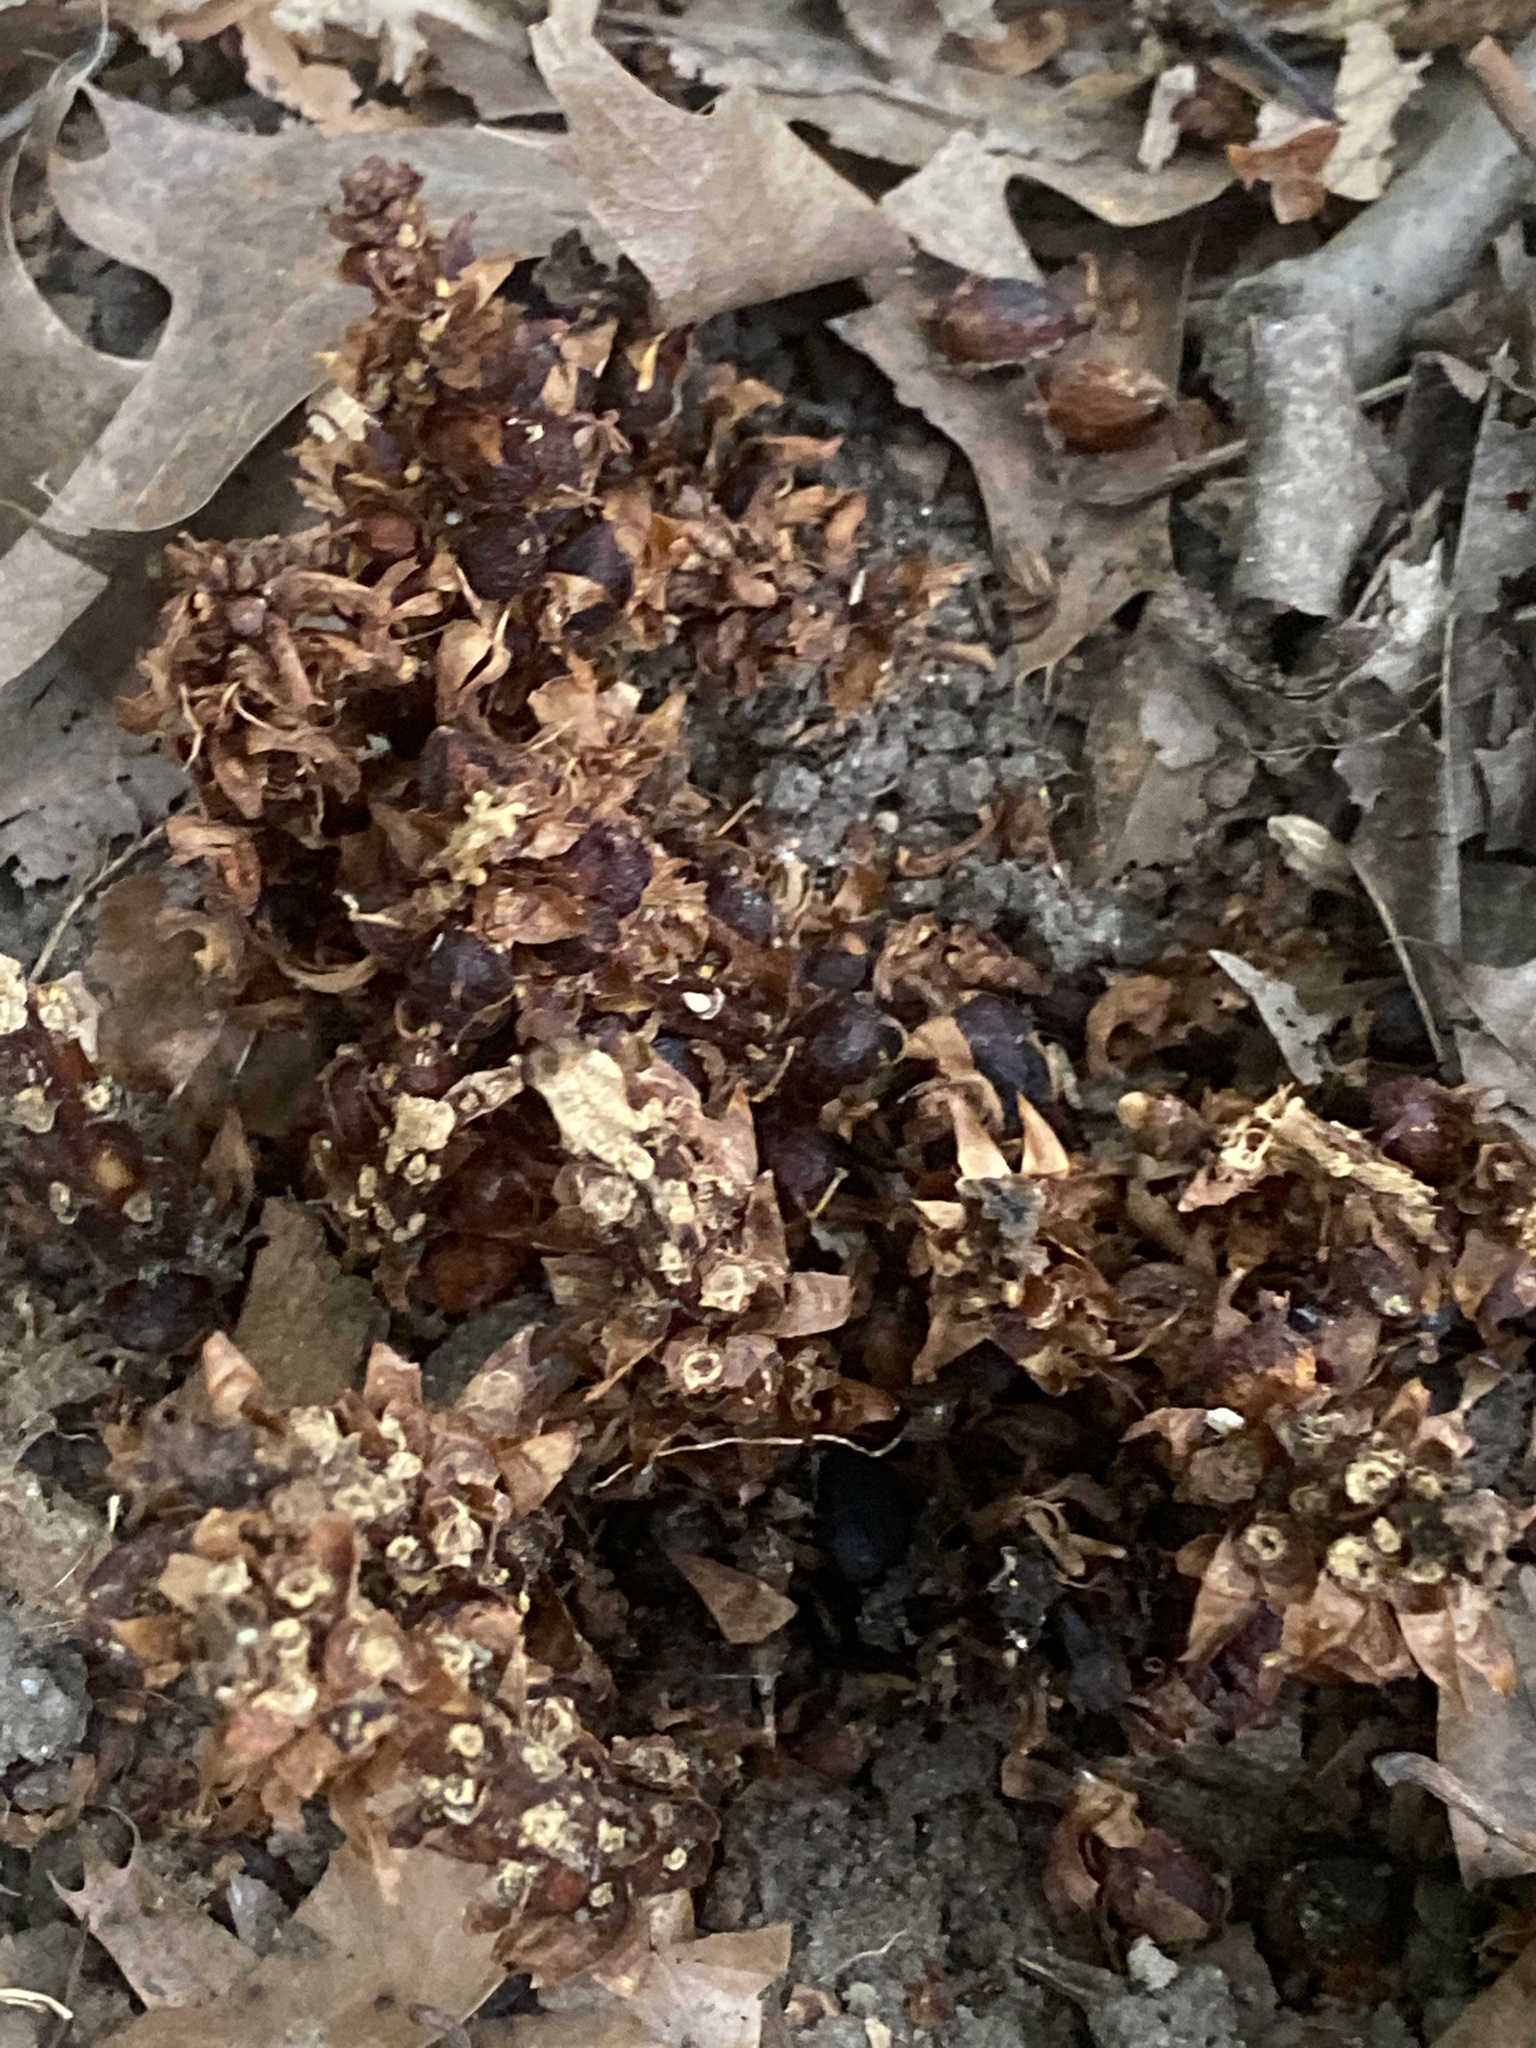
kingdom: Plantae
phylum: Tracheophyta
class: Magnoliopsida
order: Lamiales
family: Orobanchaceae
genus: Conopholis
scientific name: Conopholis americana
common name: American cancer-root
